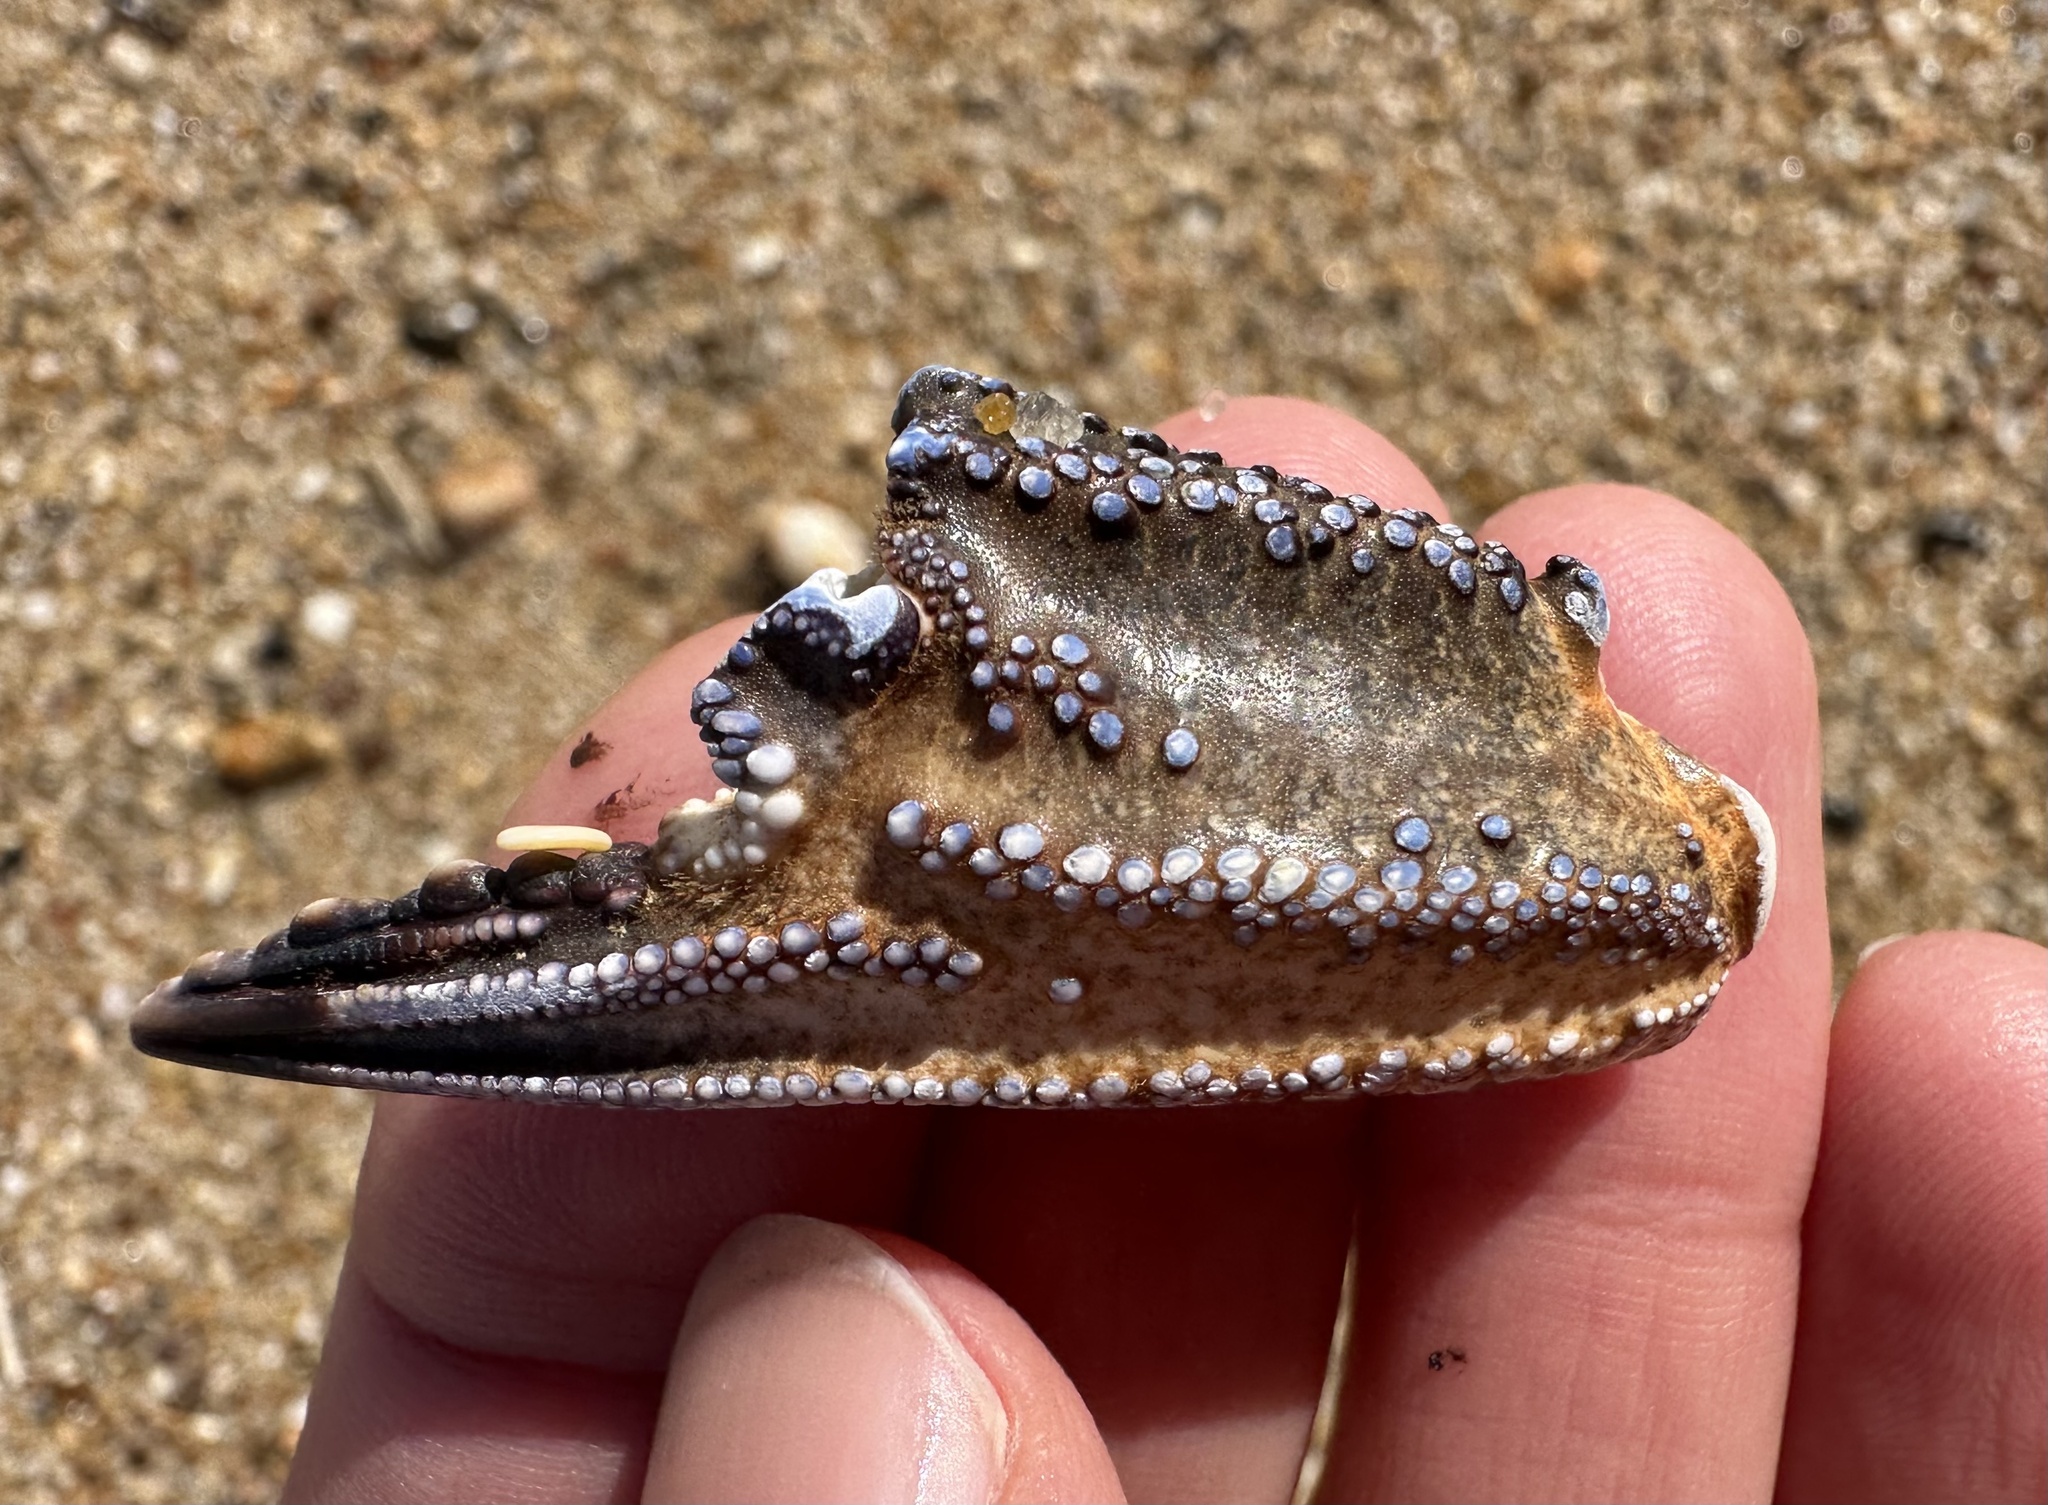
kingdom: Animalia
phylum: Arthropoda
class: Malacostraca
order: Decapoda
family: Polybiidae
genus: Necora
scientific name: Necora puber
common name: Velvet swimming crab
